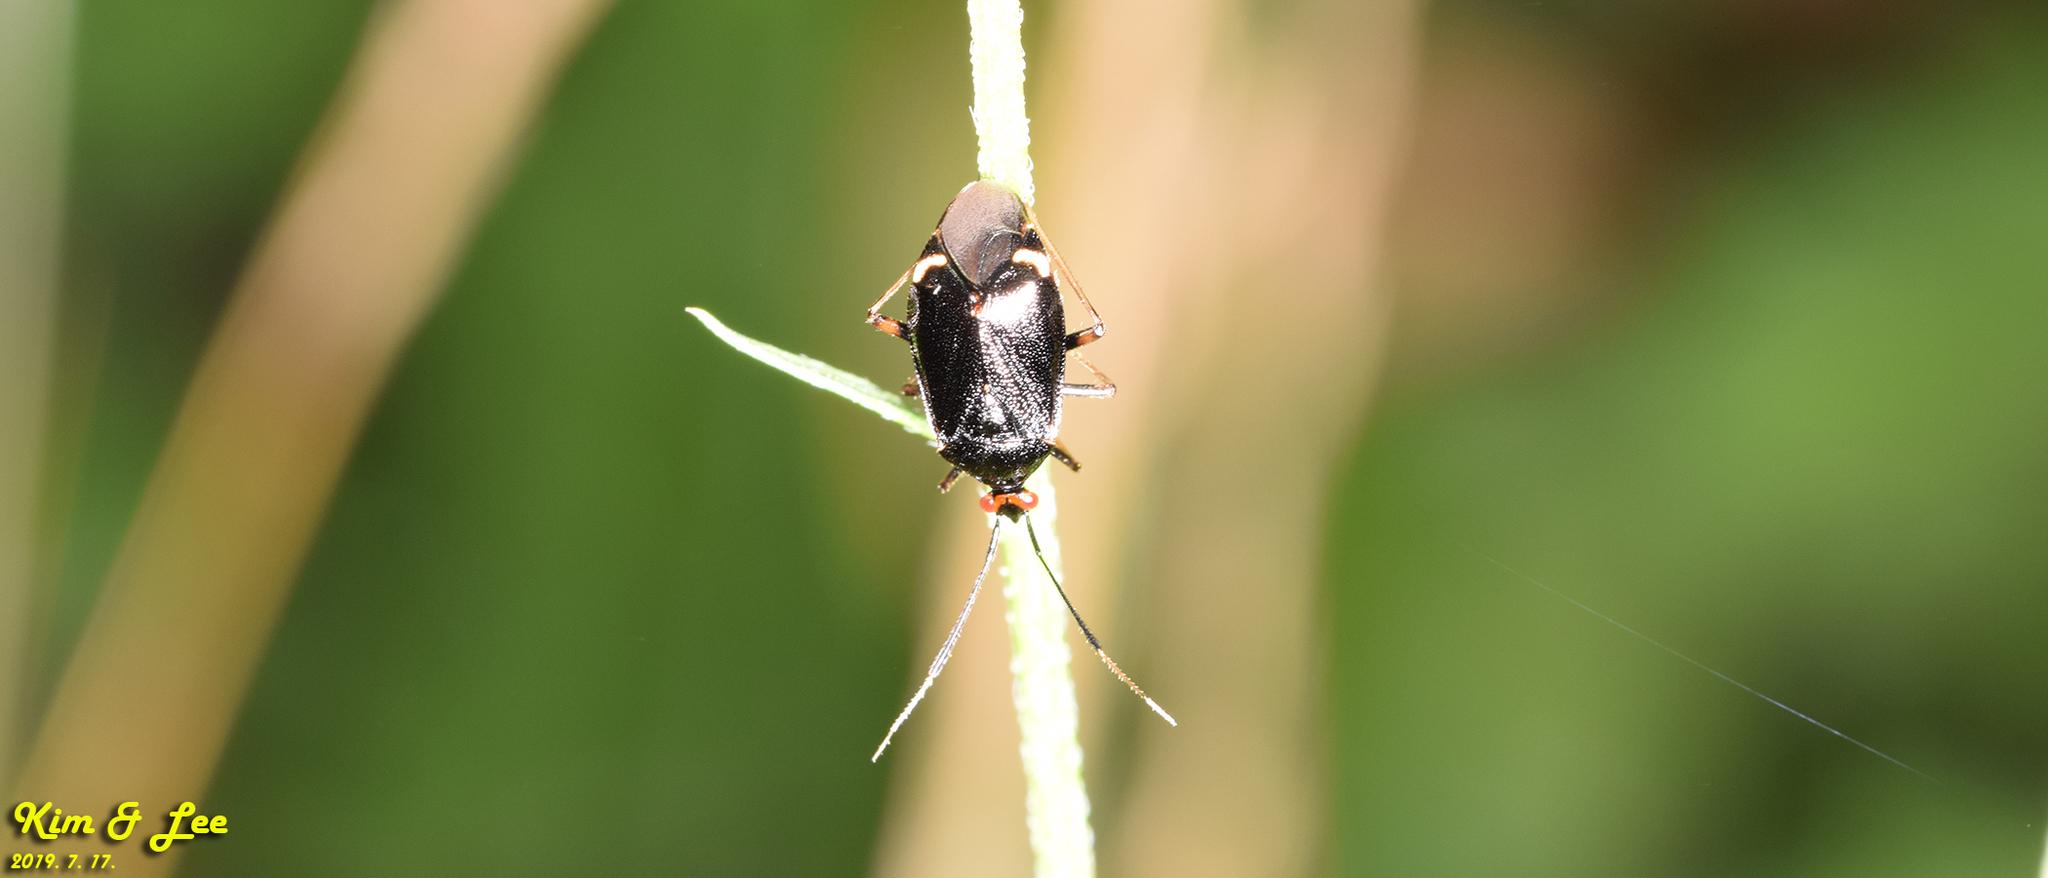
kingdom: Animalia
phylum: Arthropoda
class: Insecta
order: Hemiptera
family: Miridae
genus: Deraeocoris
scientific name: Deraeocoris ater
